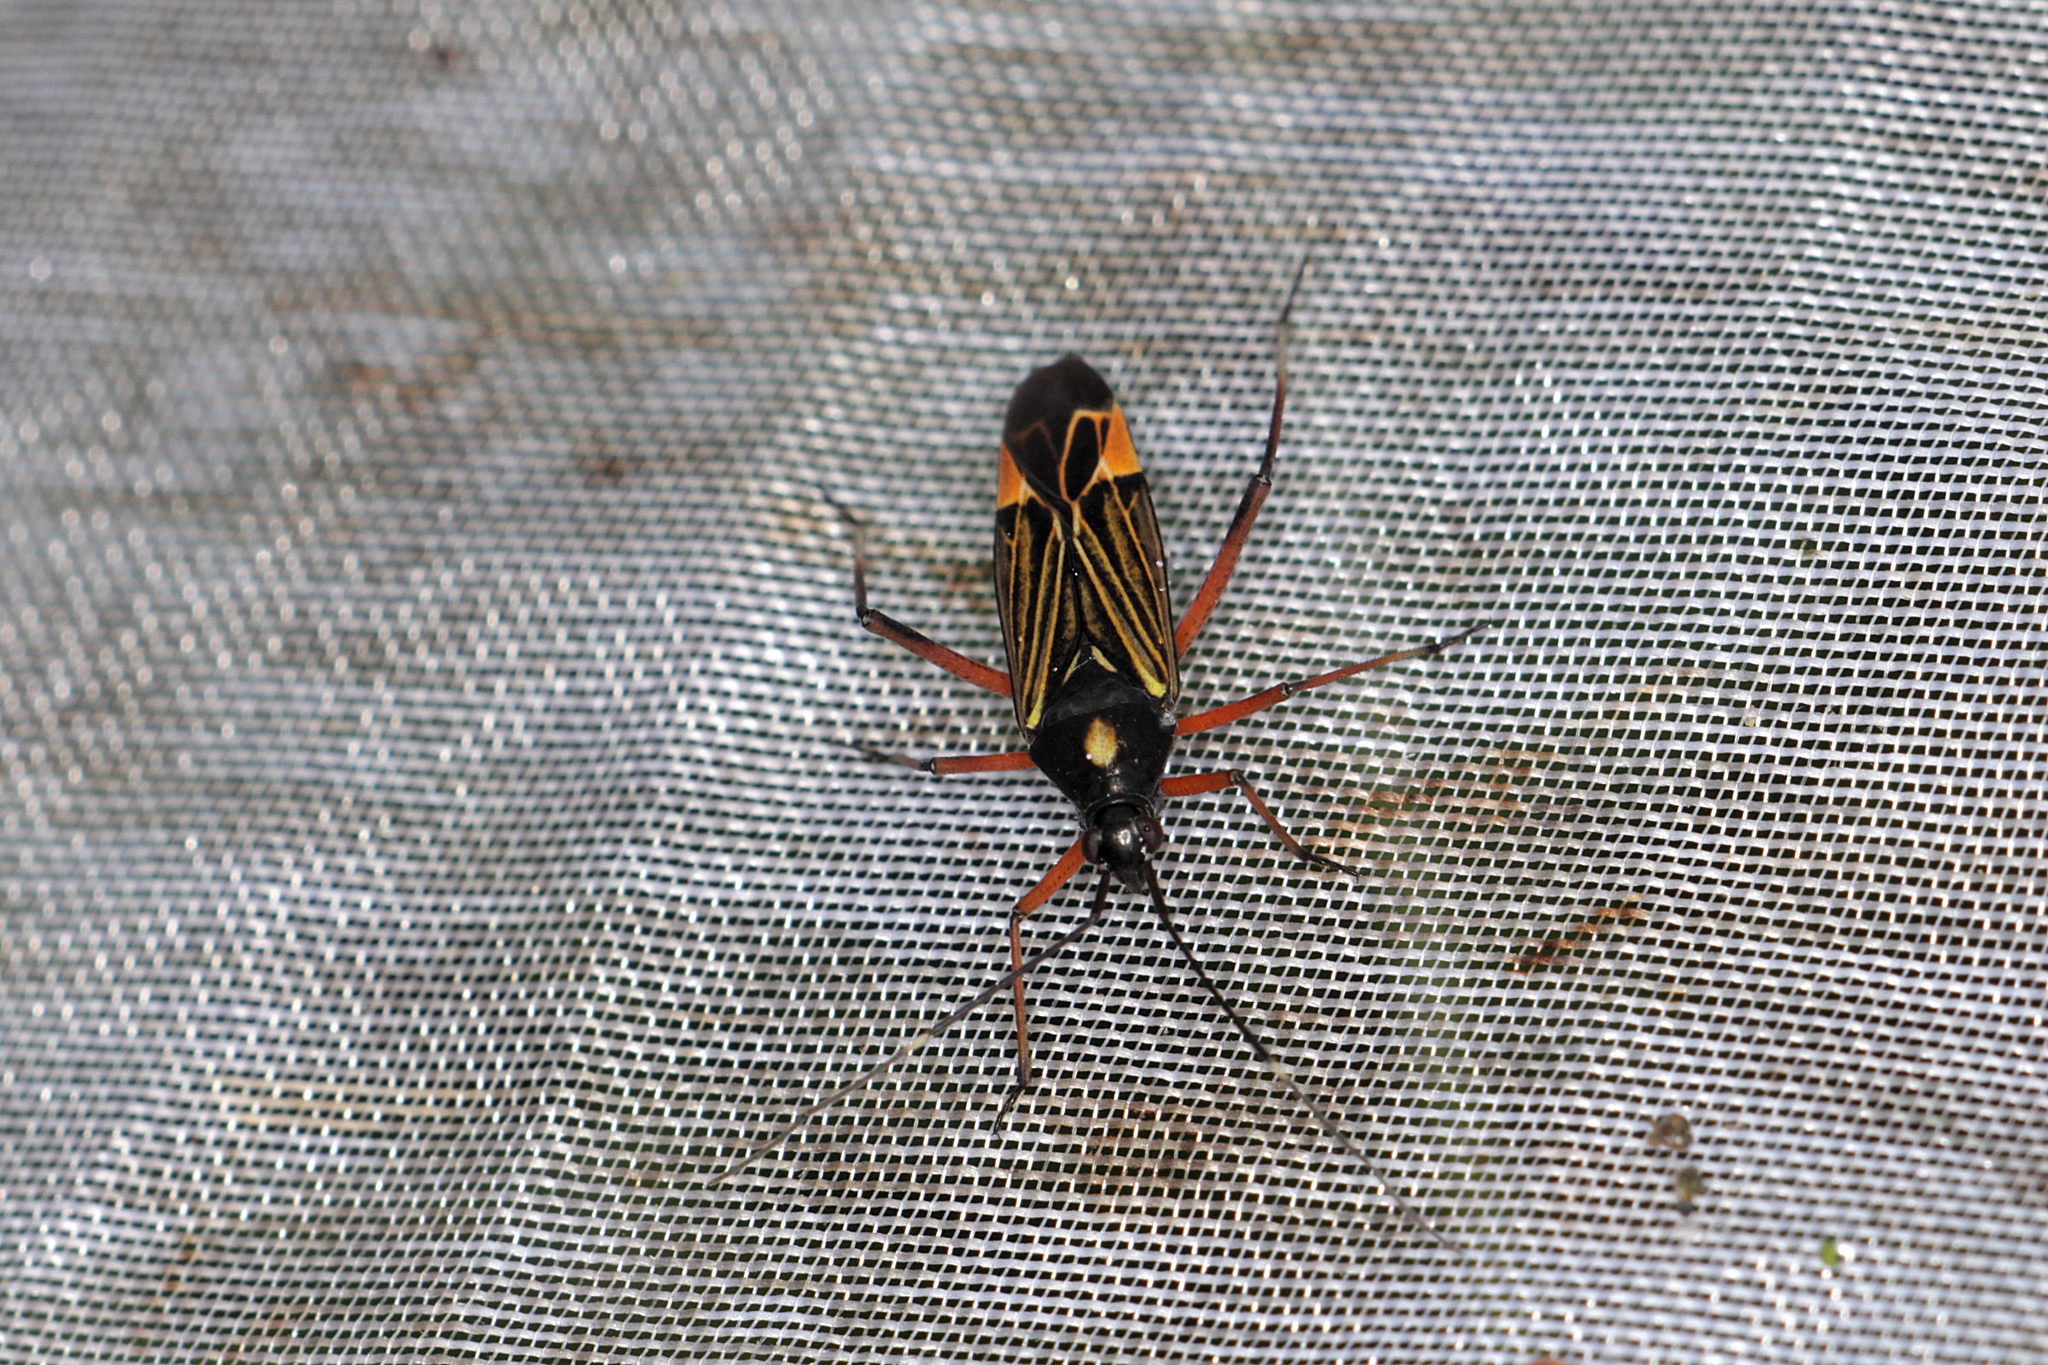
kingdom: Animalia
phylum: Arthropoda
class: Insecta
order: Hemiptera
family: Miridae
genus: Miris
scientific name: Miris striatus
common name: Fine streaked bugkin
